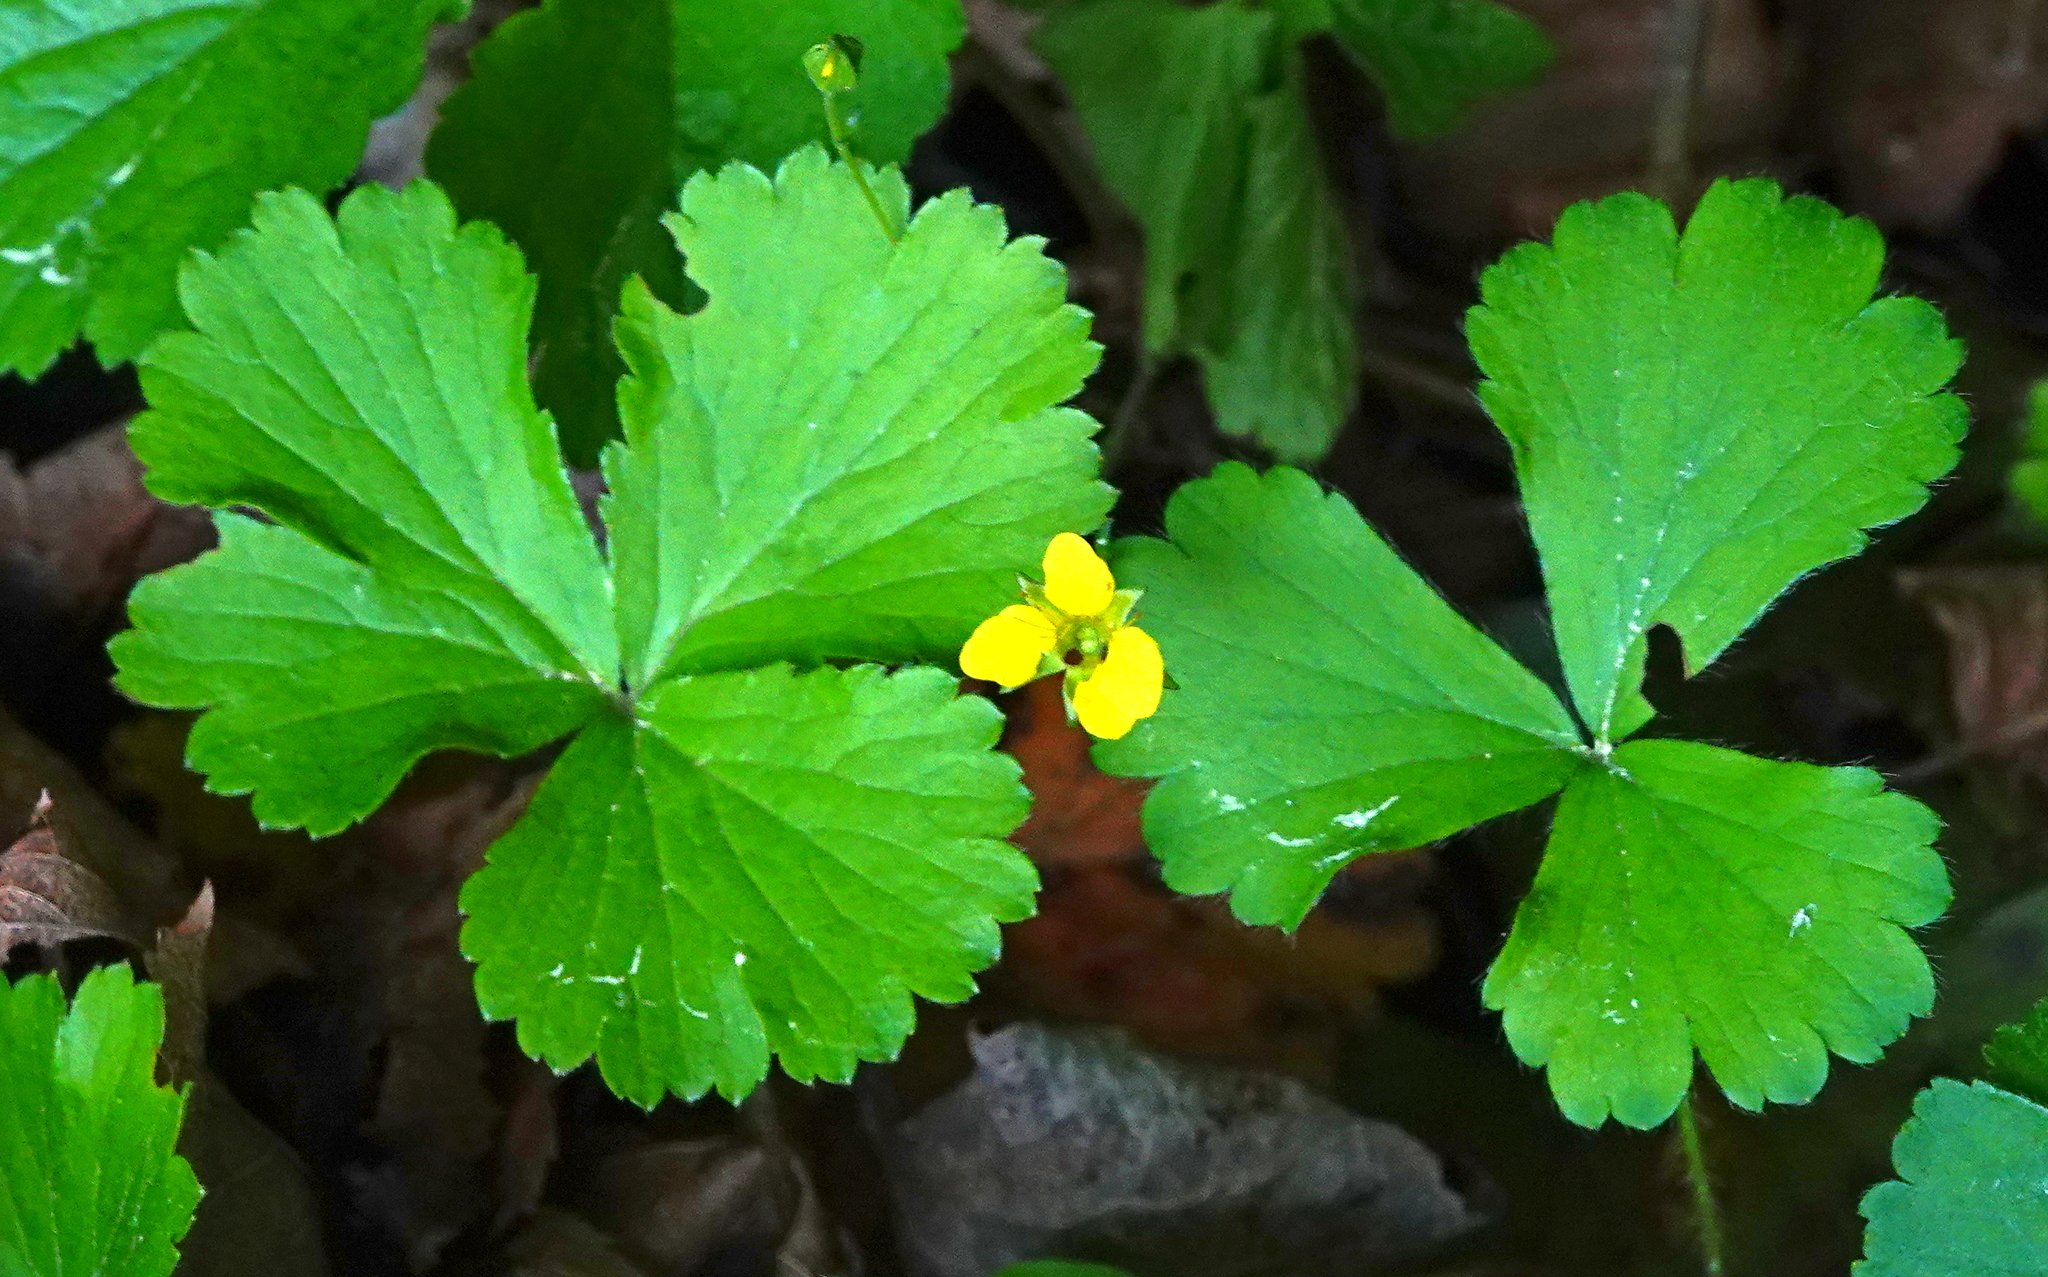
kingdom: Plantae
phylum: Tracheophyta
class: Magnoliopsida
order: Rosales
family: Rosaceae
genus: Geum
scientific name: Geum fragarioides
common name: Appalachian barren strawberry
